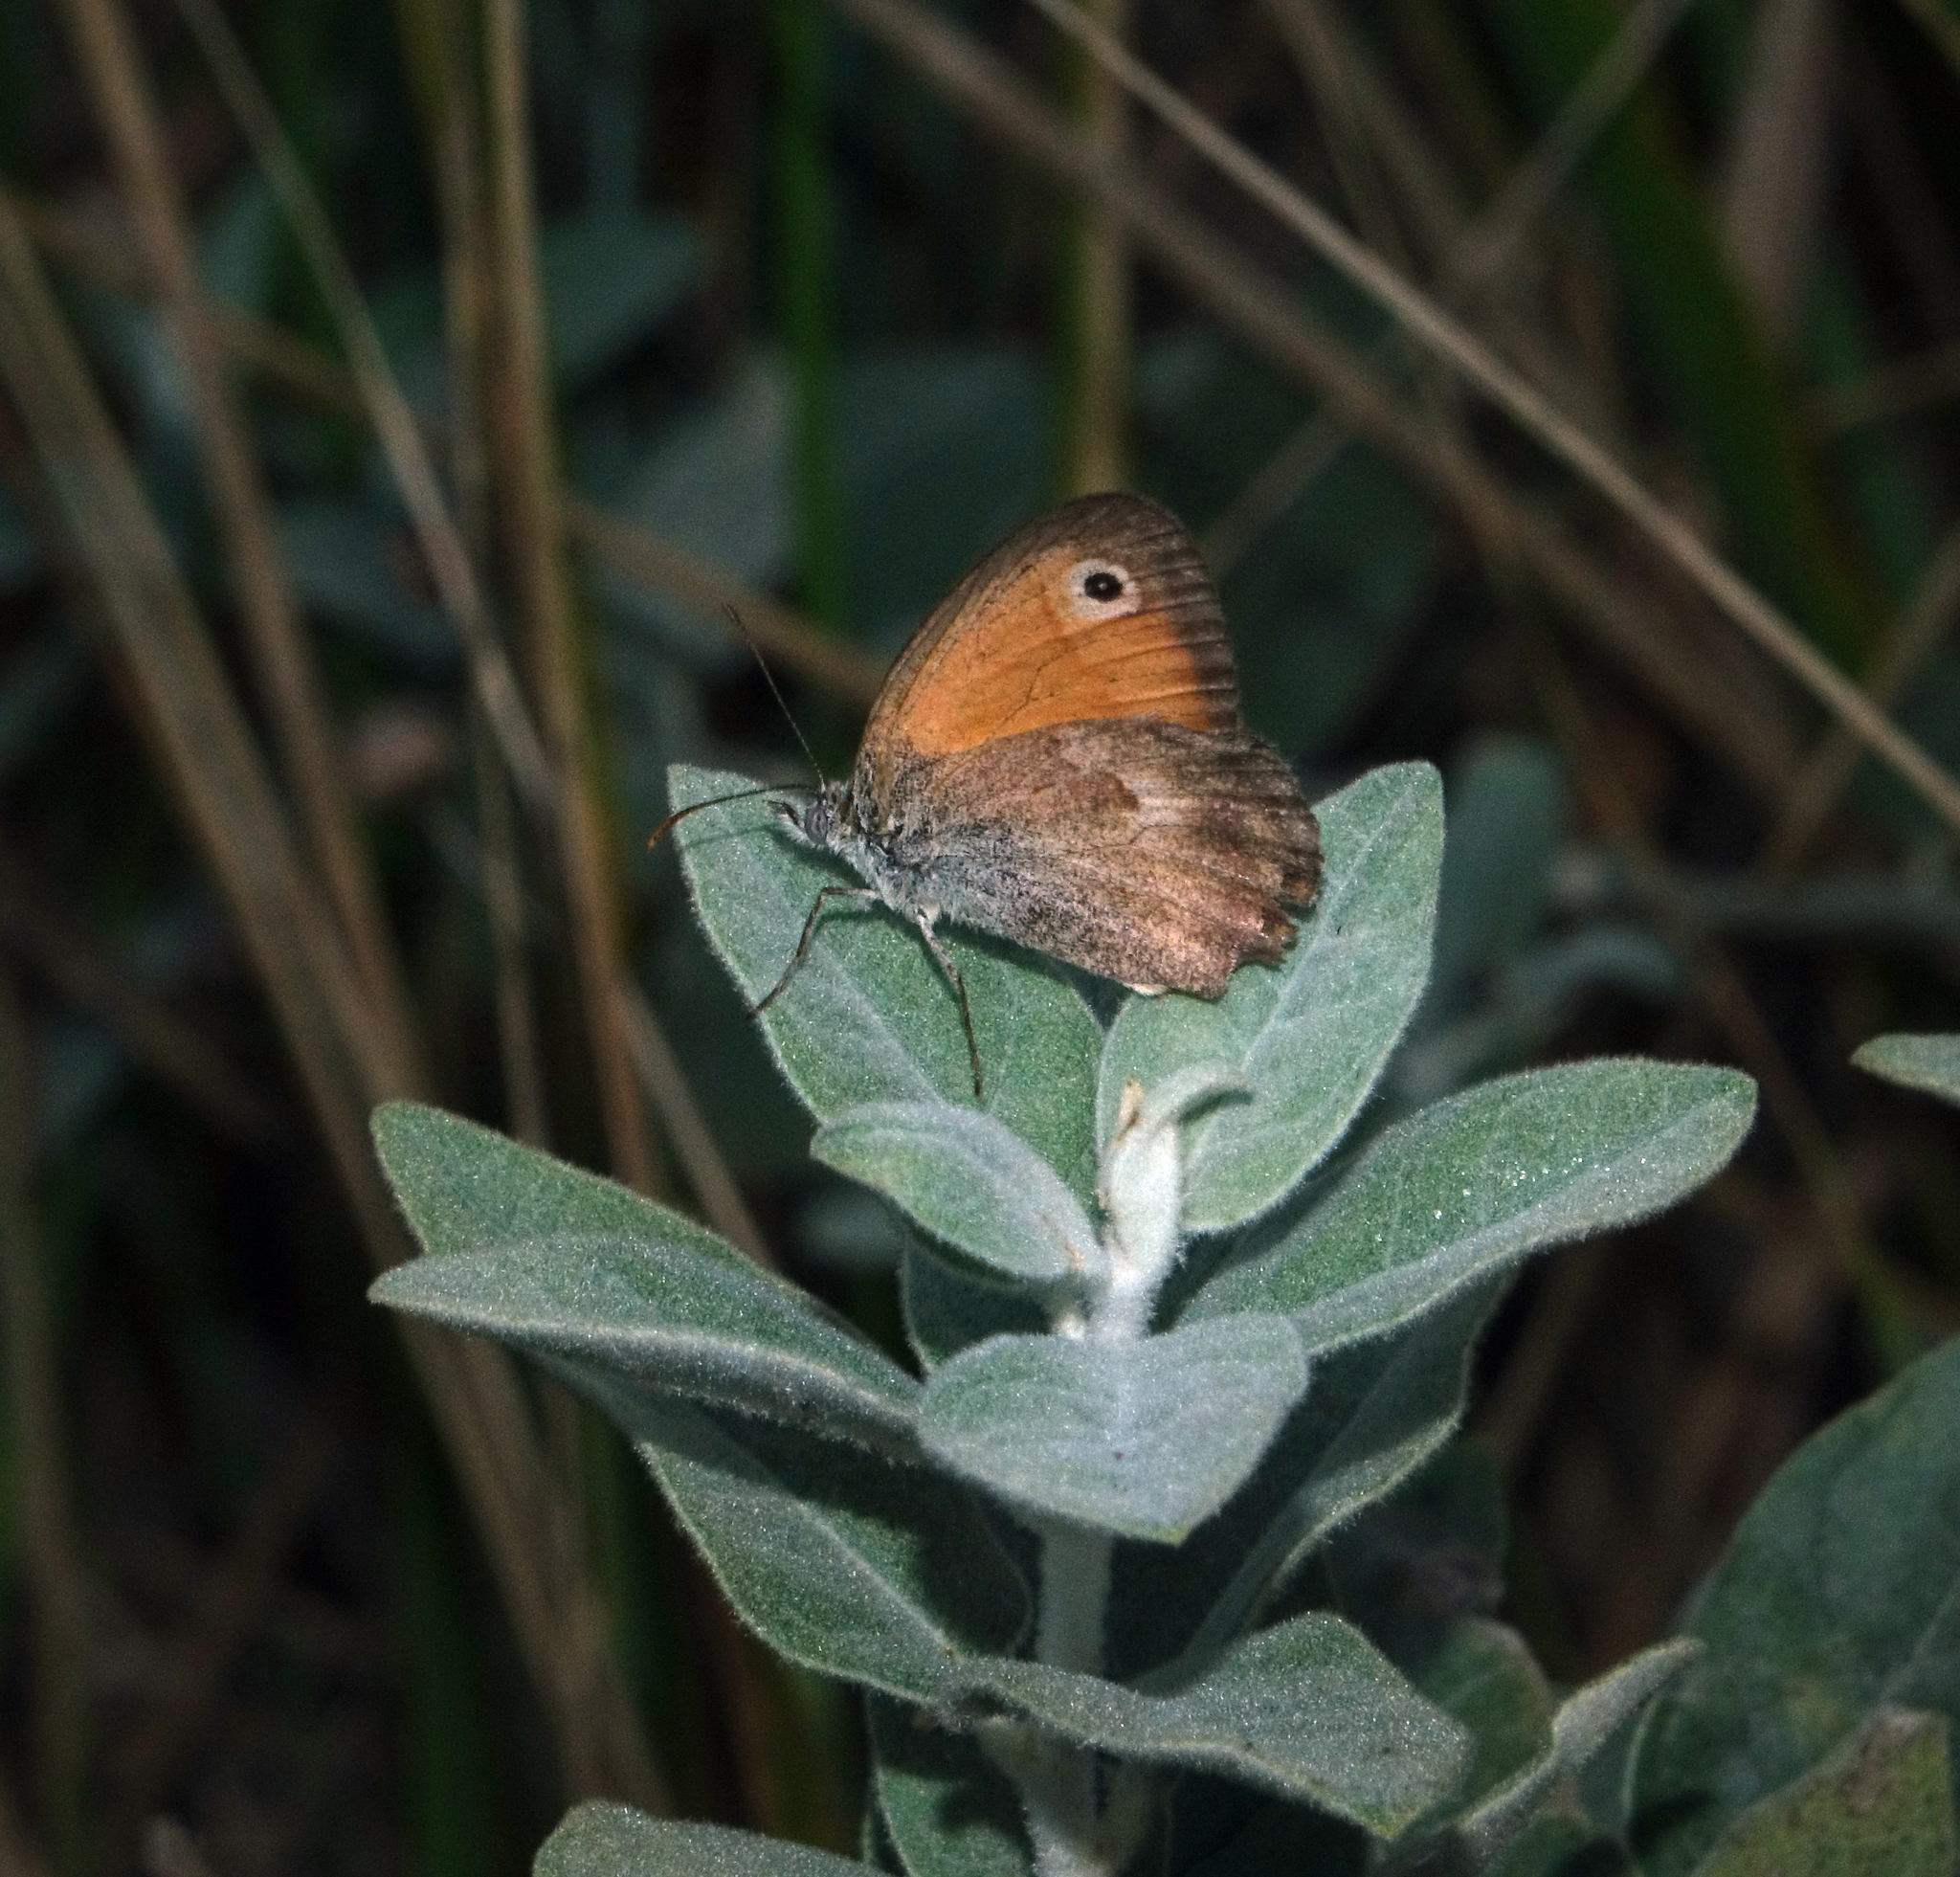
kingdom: Animalia
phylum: Arthropoda
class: Insecta
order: Lepidoptera
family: Nymphalidae
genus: Coenonympha
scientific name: Coenonympha pamphilus
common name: Small heath
